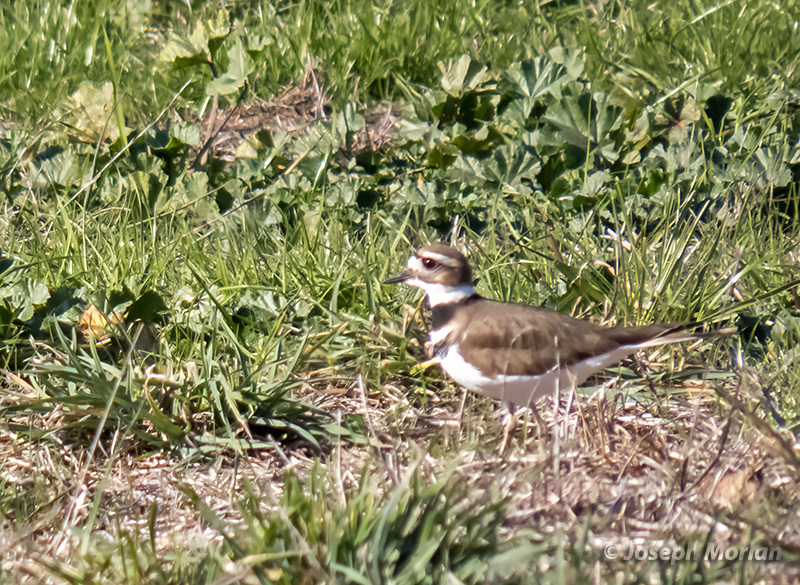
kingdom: Animalia
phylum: Chordata
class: Aves
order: Charadriiformes
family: Charadriidae
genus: Charadrius
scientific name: Charadrius vociferus
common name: Killdeer
